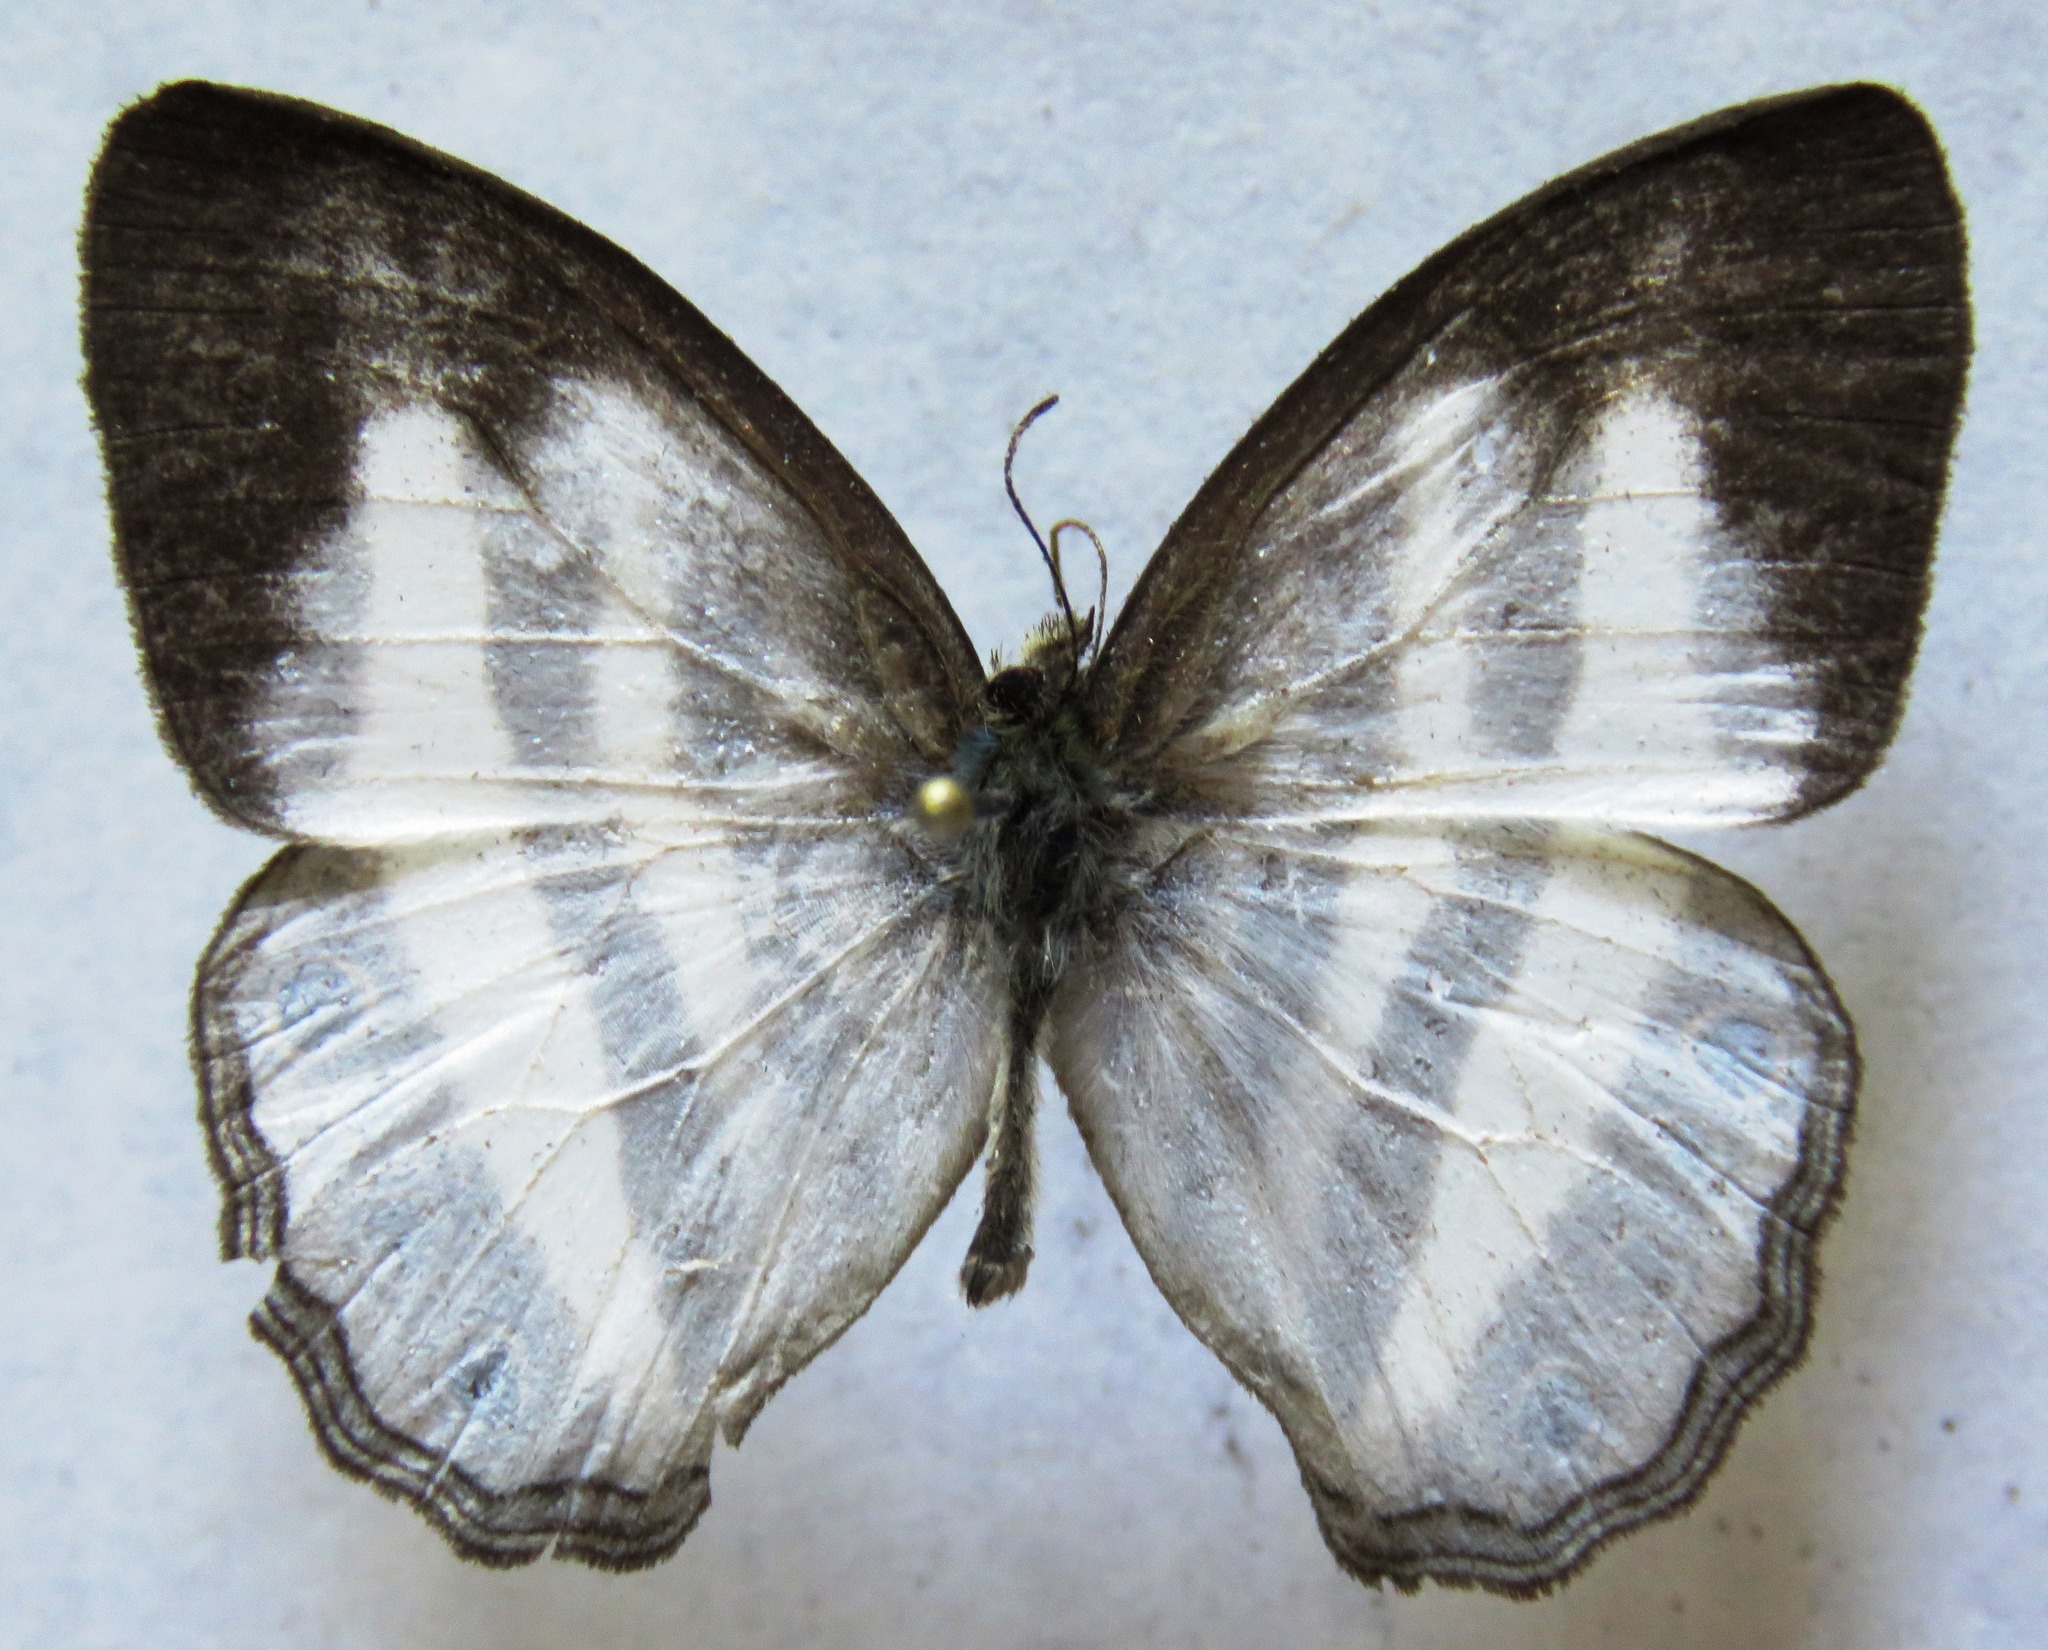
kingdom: Animalia
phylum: Arthropoda
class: Insecta
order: Lepidoptera
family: Nymphalidae
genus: Pareuptychia
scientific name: Pareuptychia hesione
